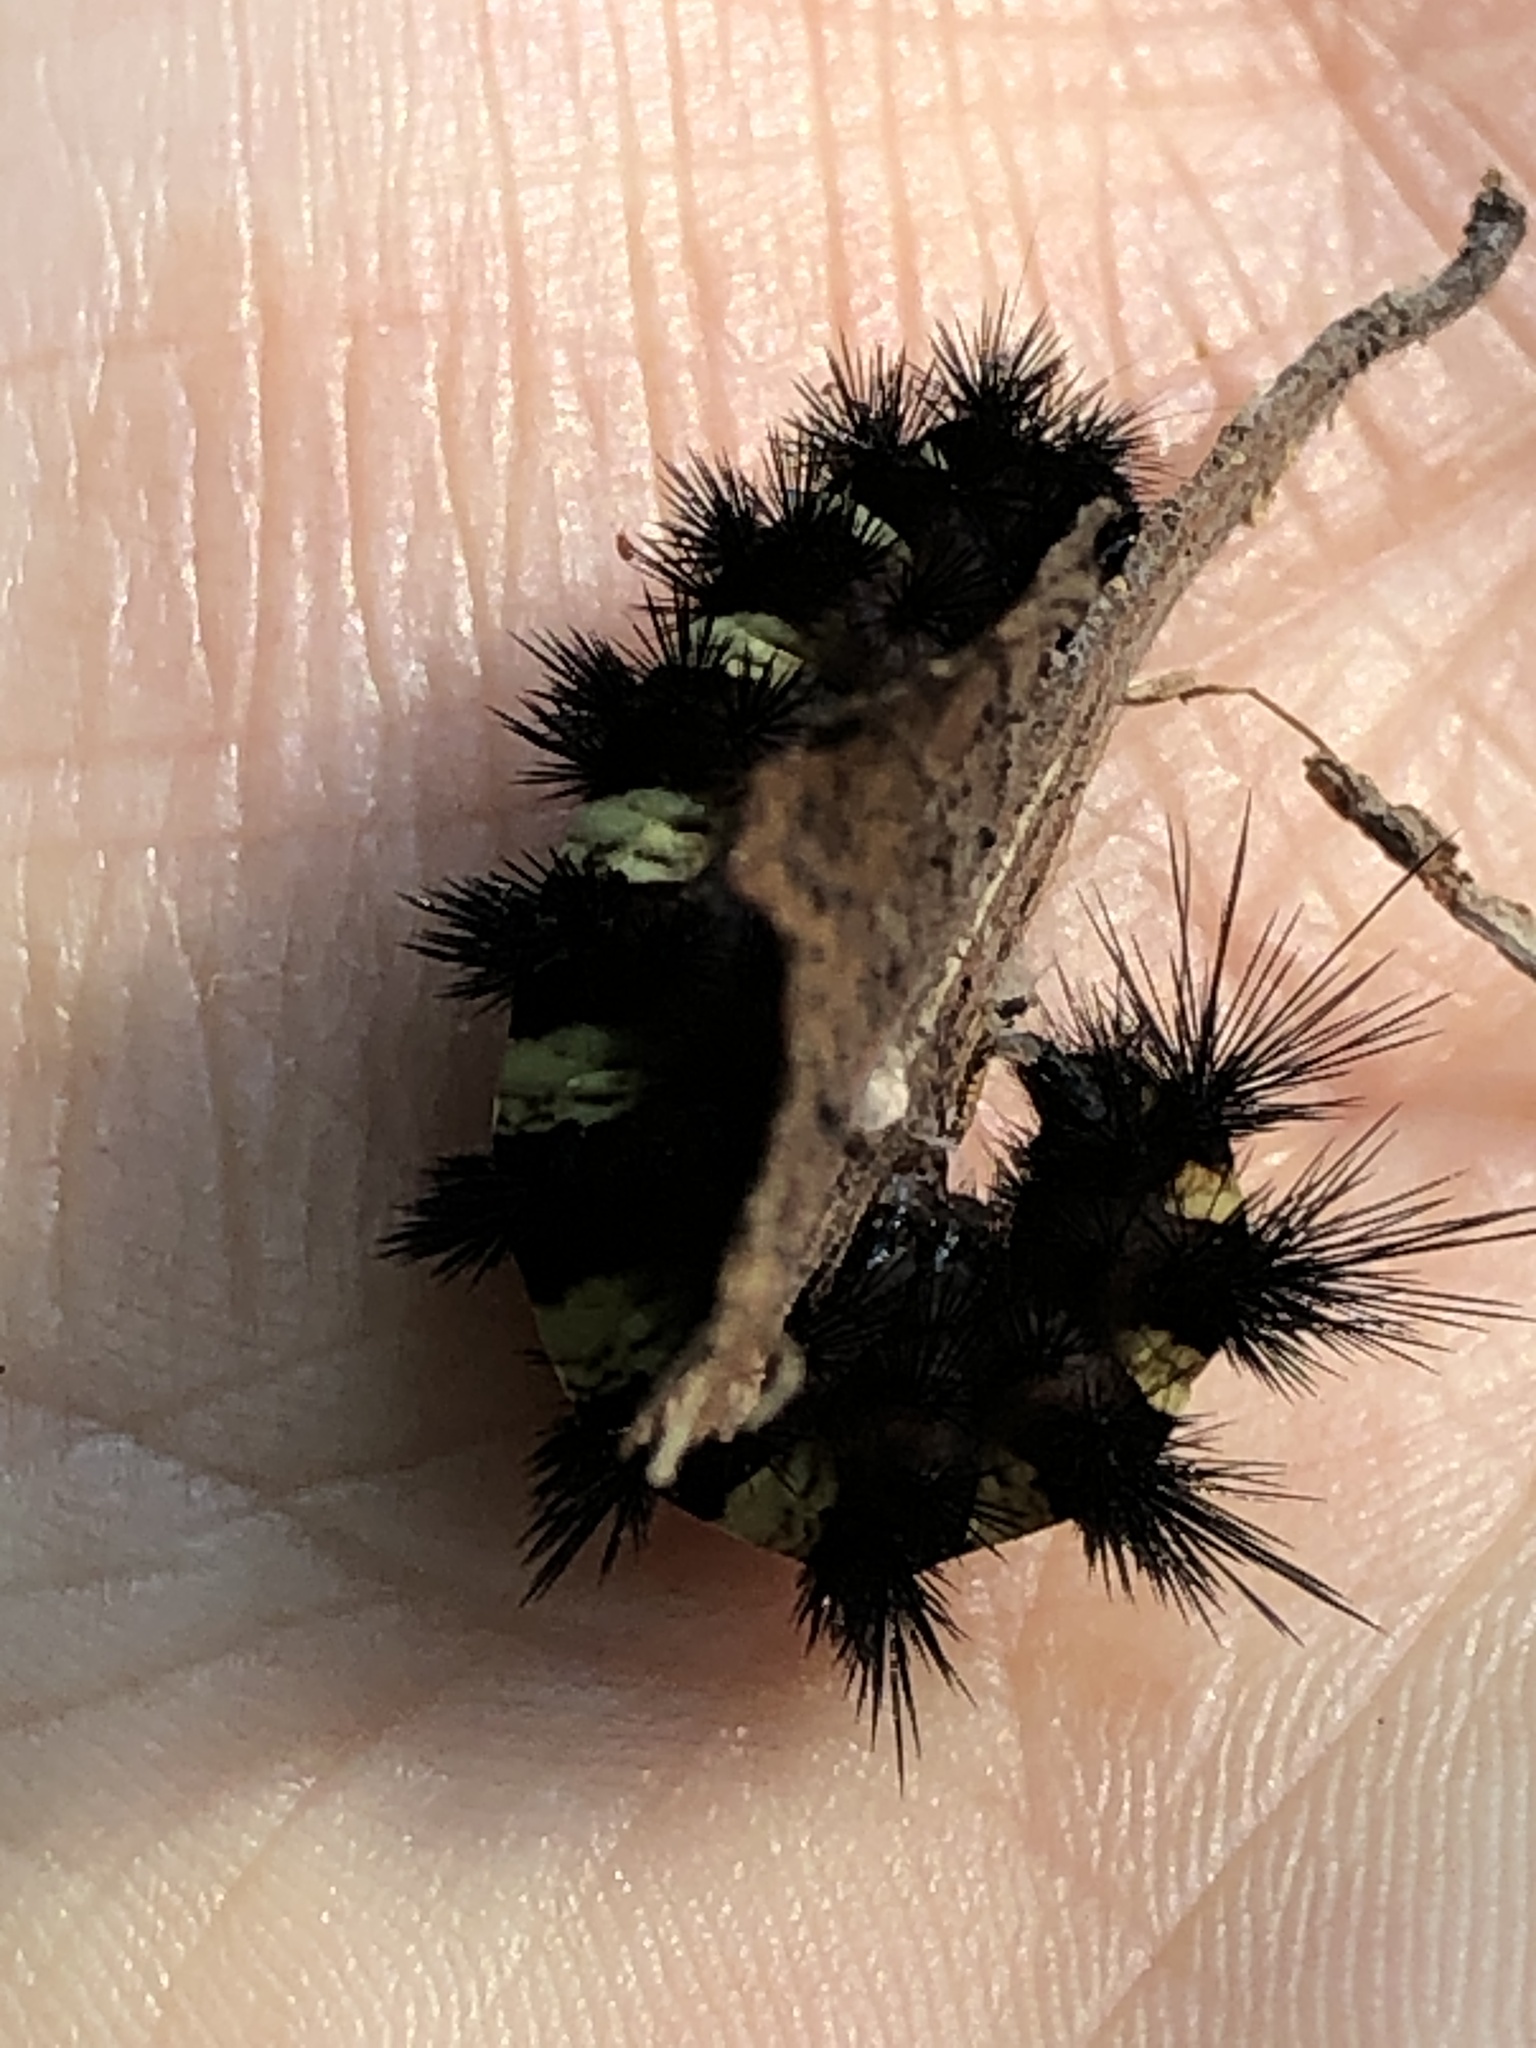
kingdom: Animalia
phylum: Arthropoda
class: Insecta
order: Lepidoptera
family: Erebidae
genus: Spilosoma
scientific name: Spilosoma congrua
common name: Agreeable tiger moth
